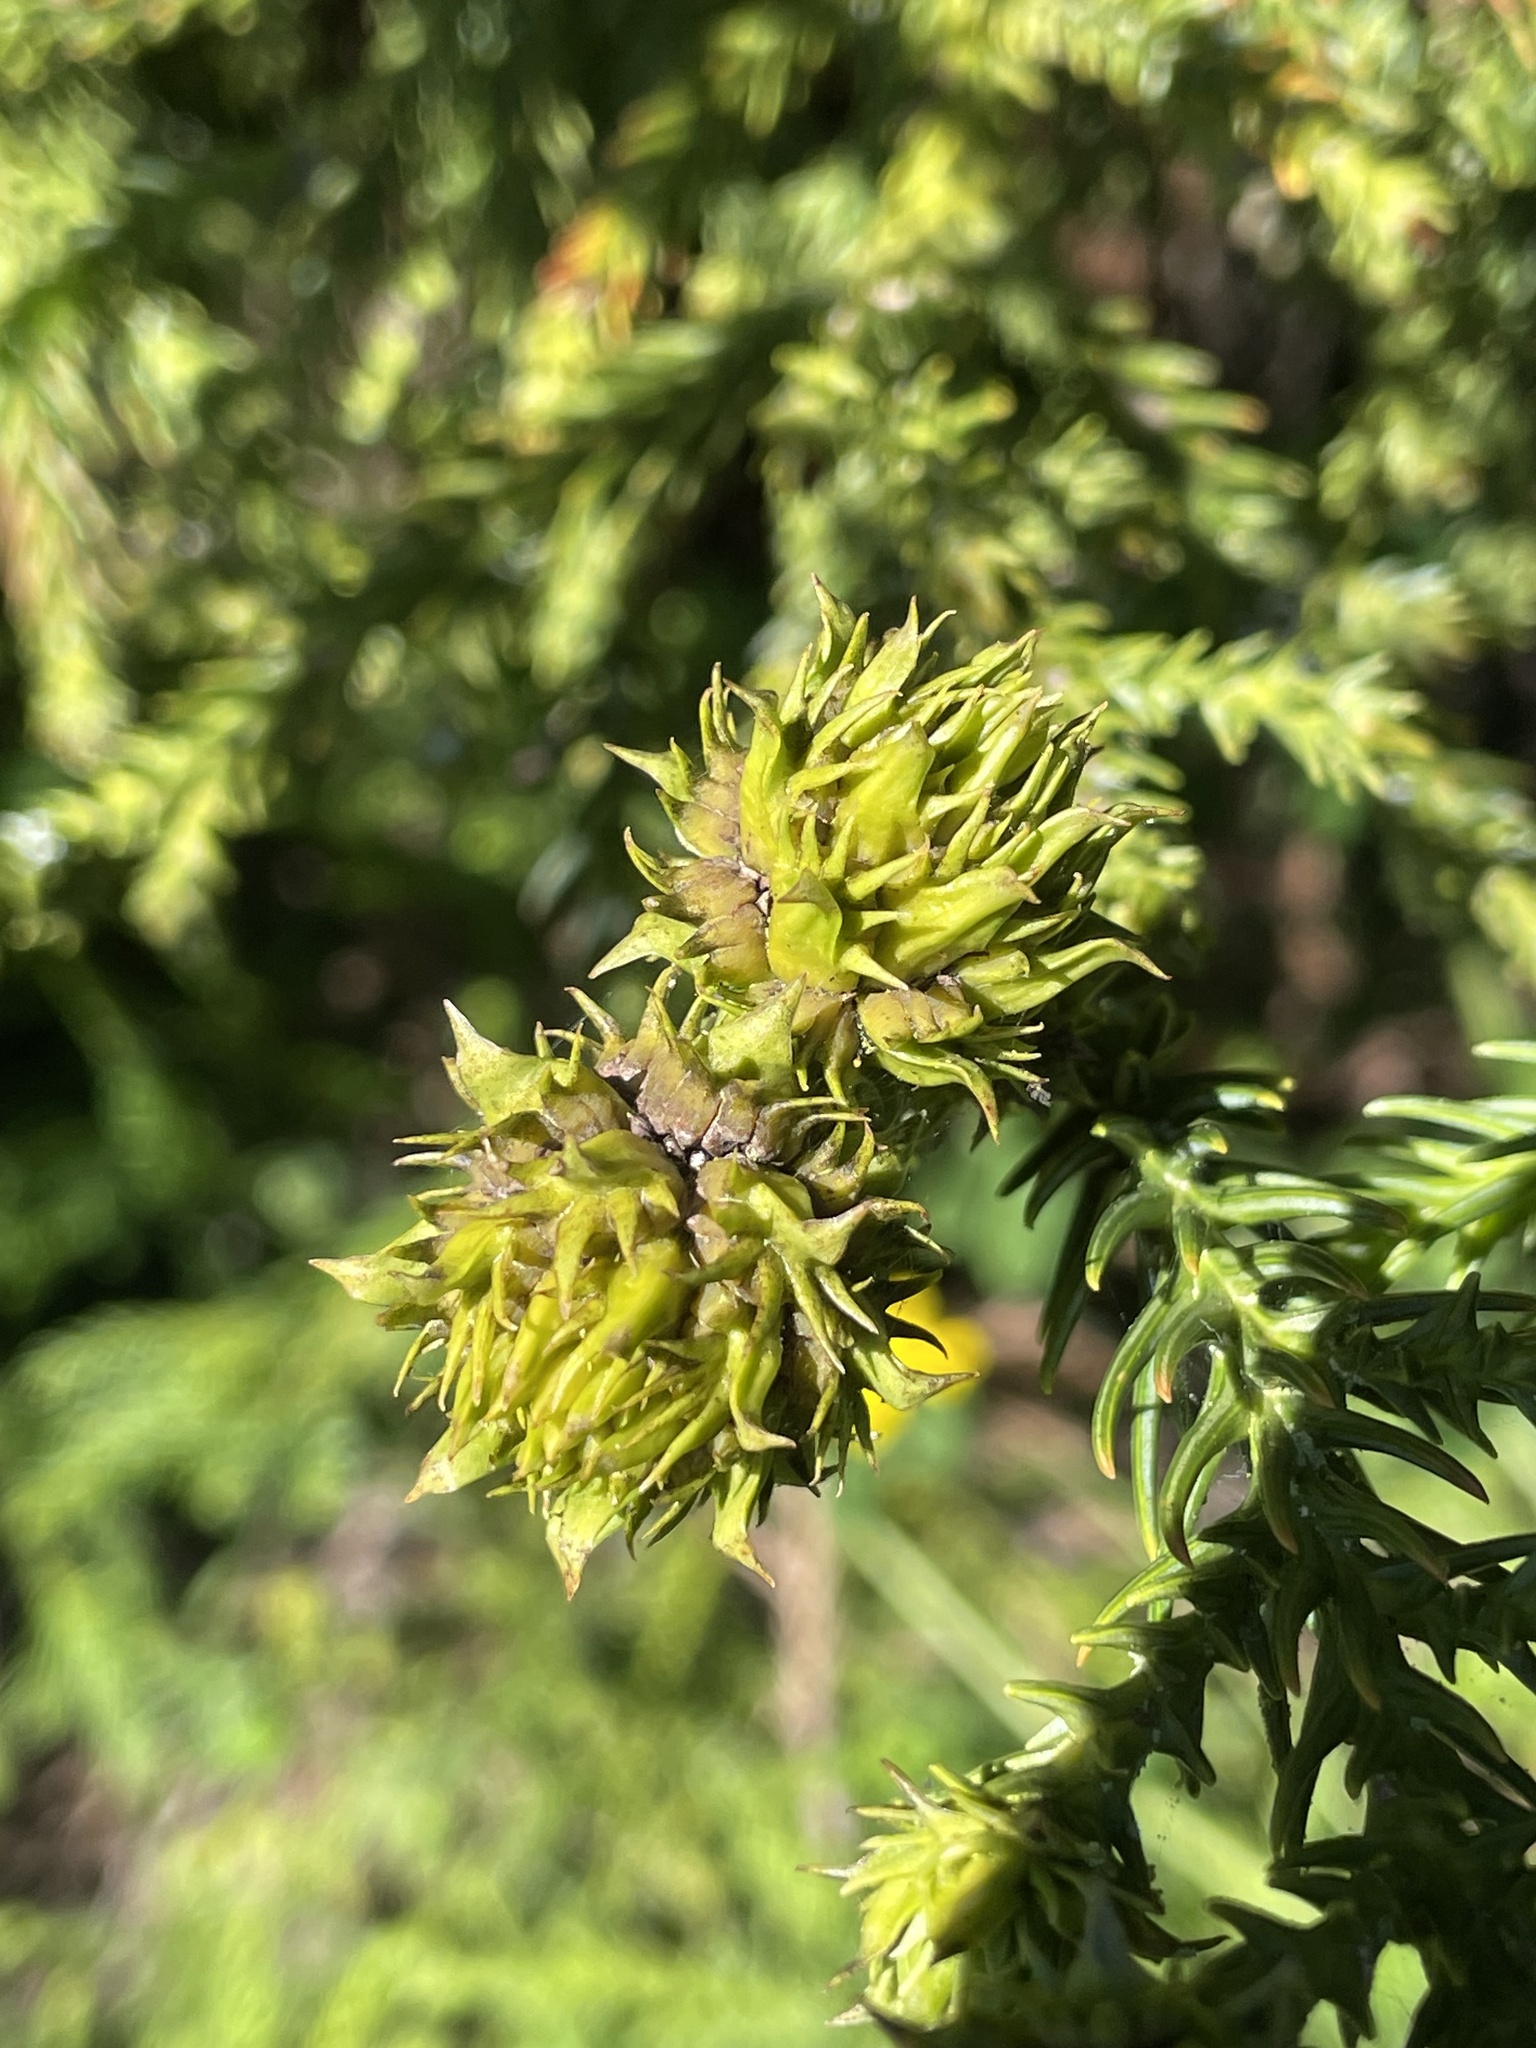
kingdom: Plantae
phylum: Tracheophyta
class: Pinopsida
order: Pinales
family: Cupressaceae
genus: Cryptomeria
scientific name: Cryptomeria japonica
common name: Japanese cedar
